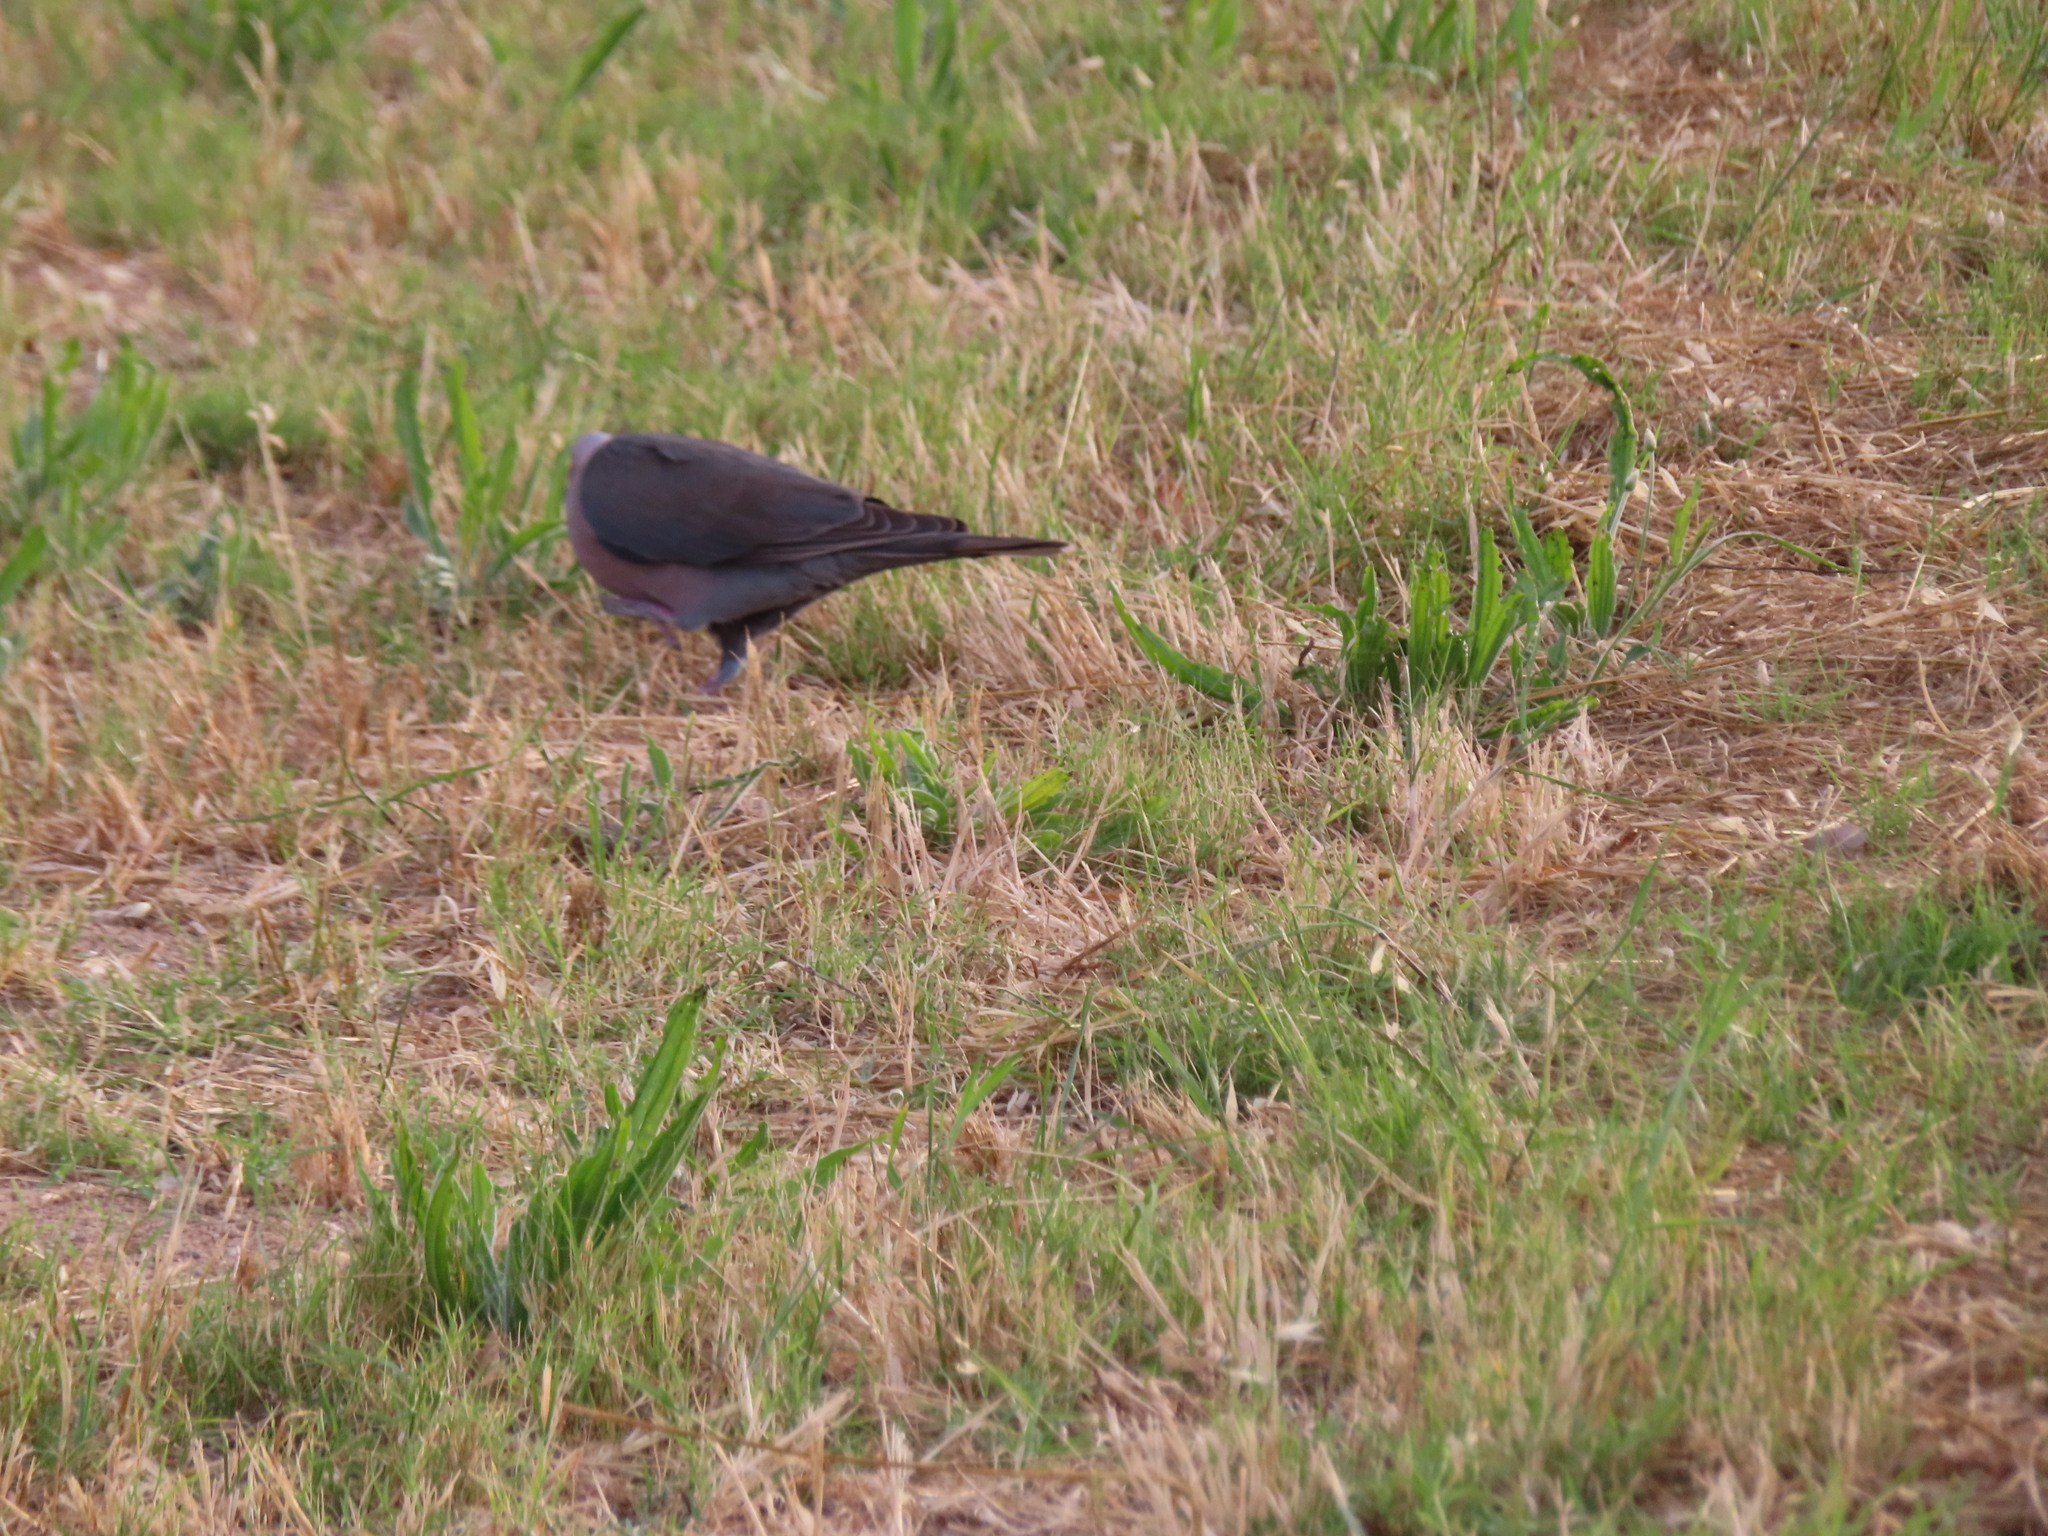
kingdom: Animalia
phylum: Chordata
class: Aves
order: Columbiformes
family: Columbidae
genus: Streptopelia
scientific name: Streptopelia semitorquata
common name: Red-eyed dove
